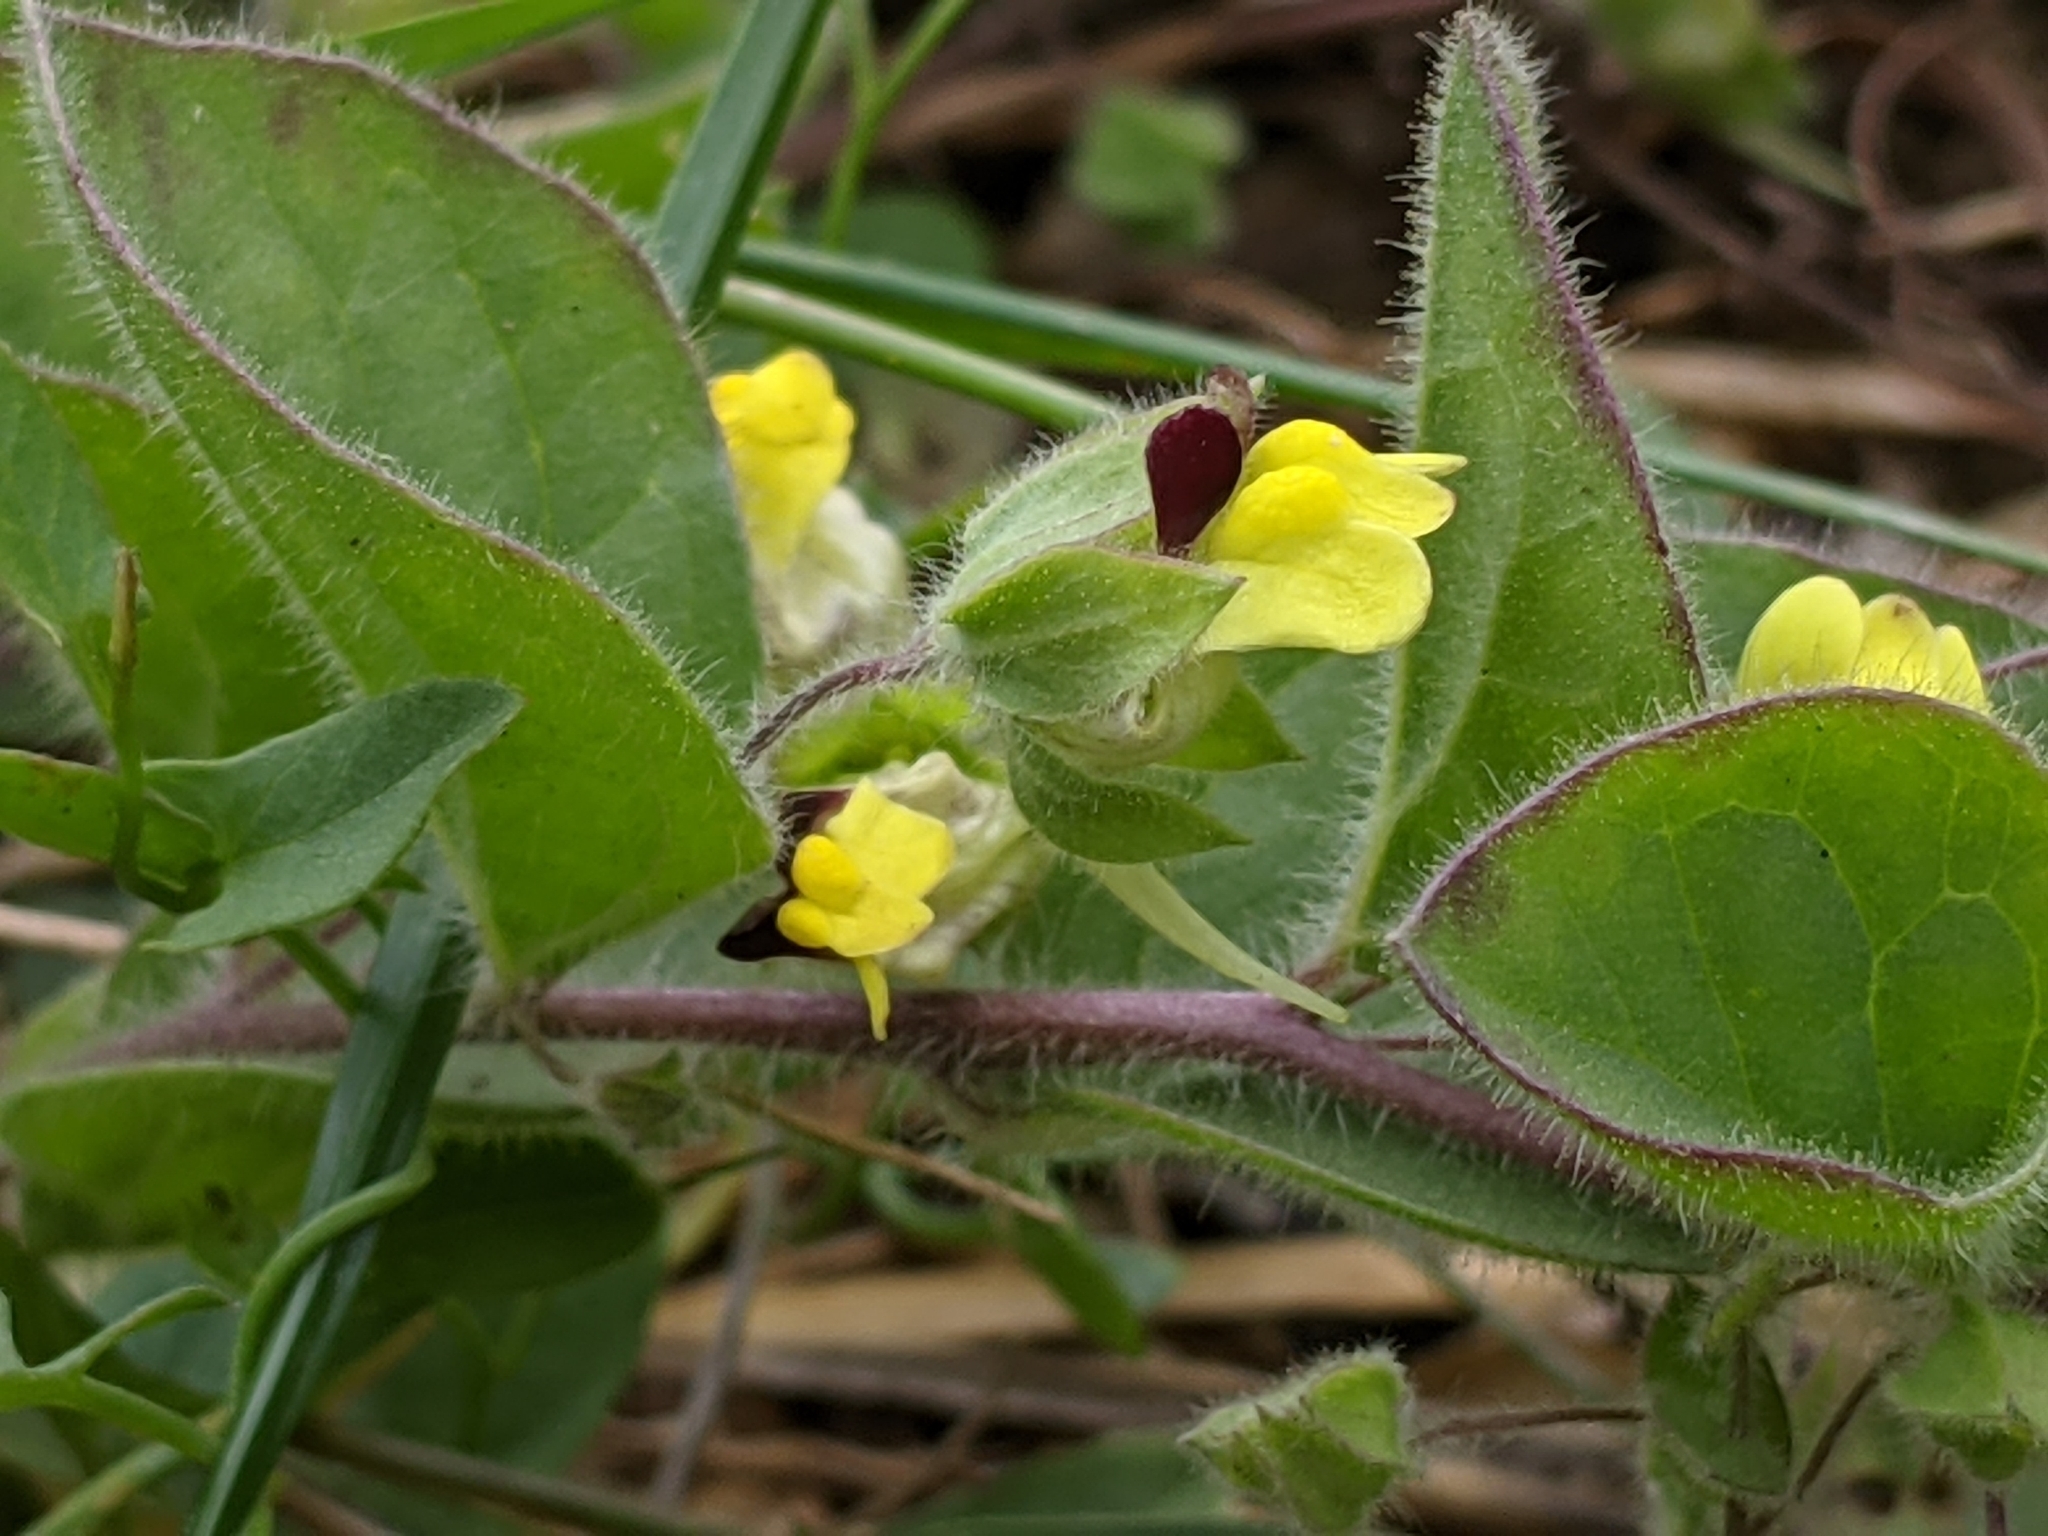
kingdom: Plantae
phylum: Tracheophyta
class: Magnoliopsida
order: Lamiales
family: Plantaginaceae
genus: Kickxia
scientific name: Kickxia spuria
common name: Round-leaved fluellen
